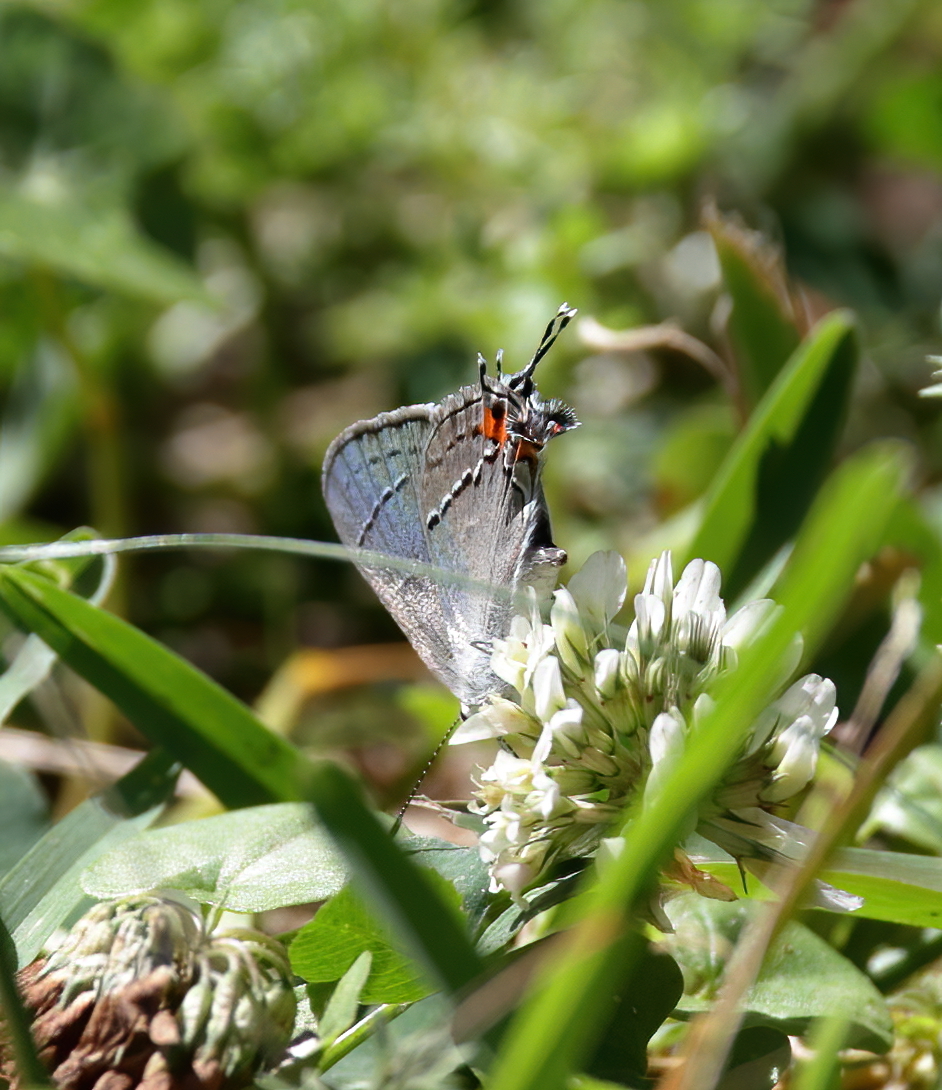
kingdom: Animalia
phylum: Arthropoda
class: Insecta
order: Lepidoptera
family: Lycaenidae
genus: Strymon
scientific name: Strymon melinus
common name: Gray hairstreak
